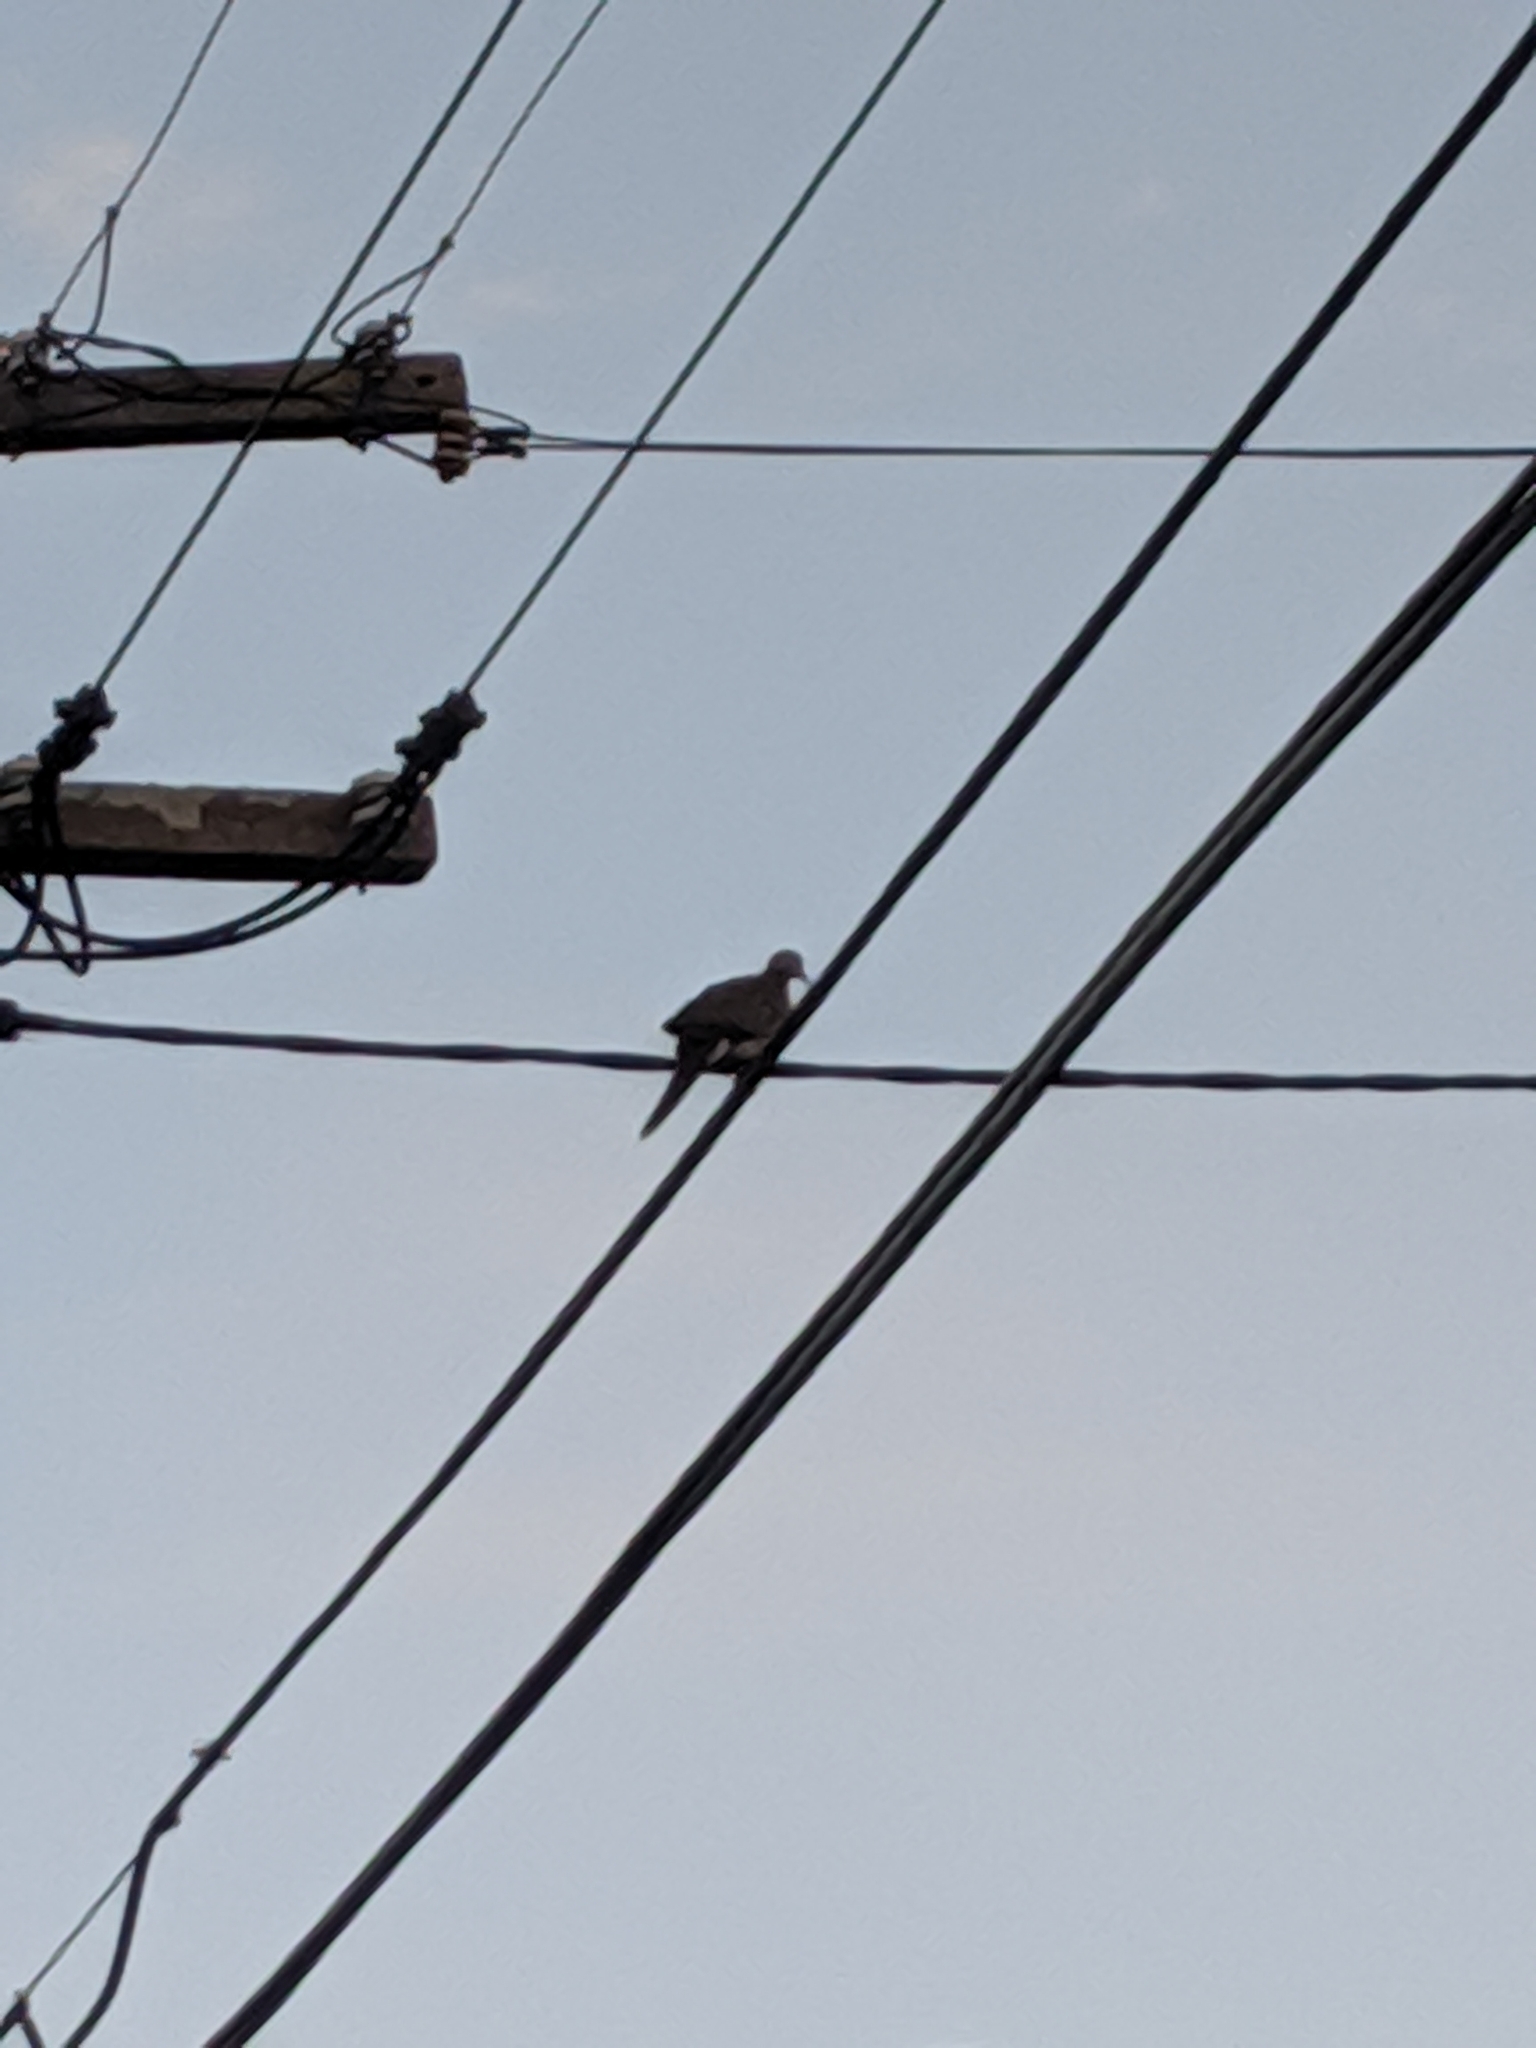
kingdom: Animalia
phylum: Chordata
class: Aves
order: Columbiformes
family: Columbidae
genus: Spilopelia
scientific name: Spilopelia chinensis
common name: Spotted dove
